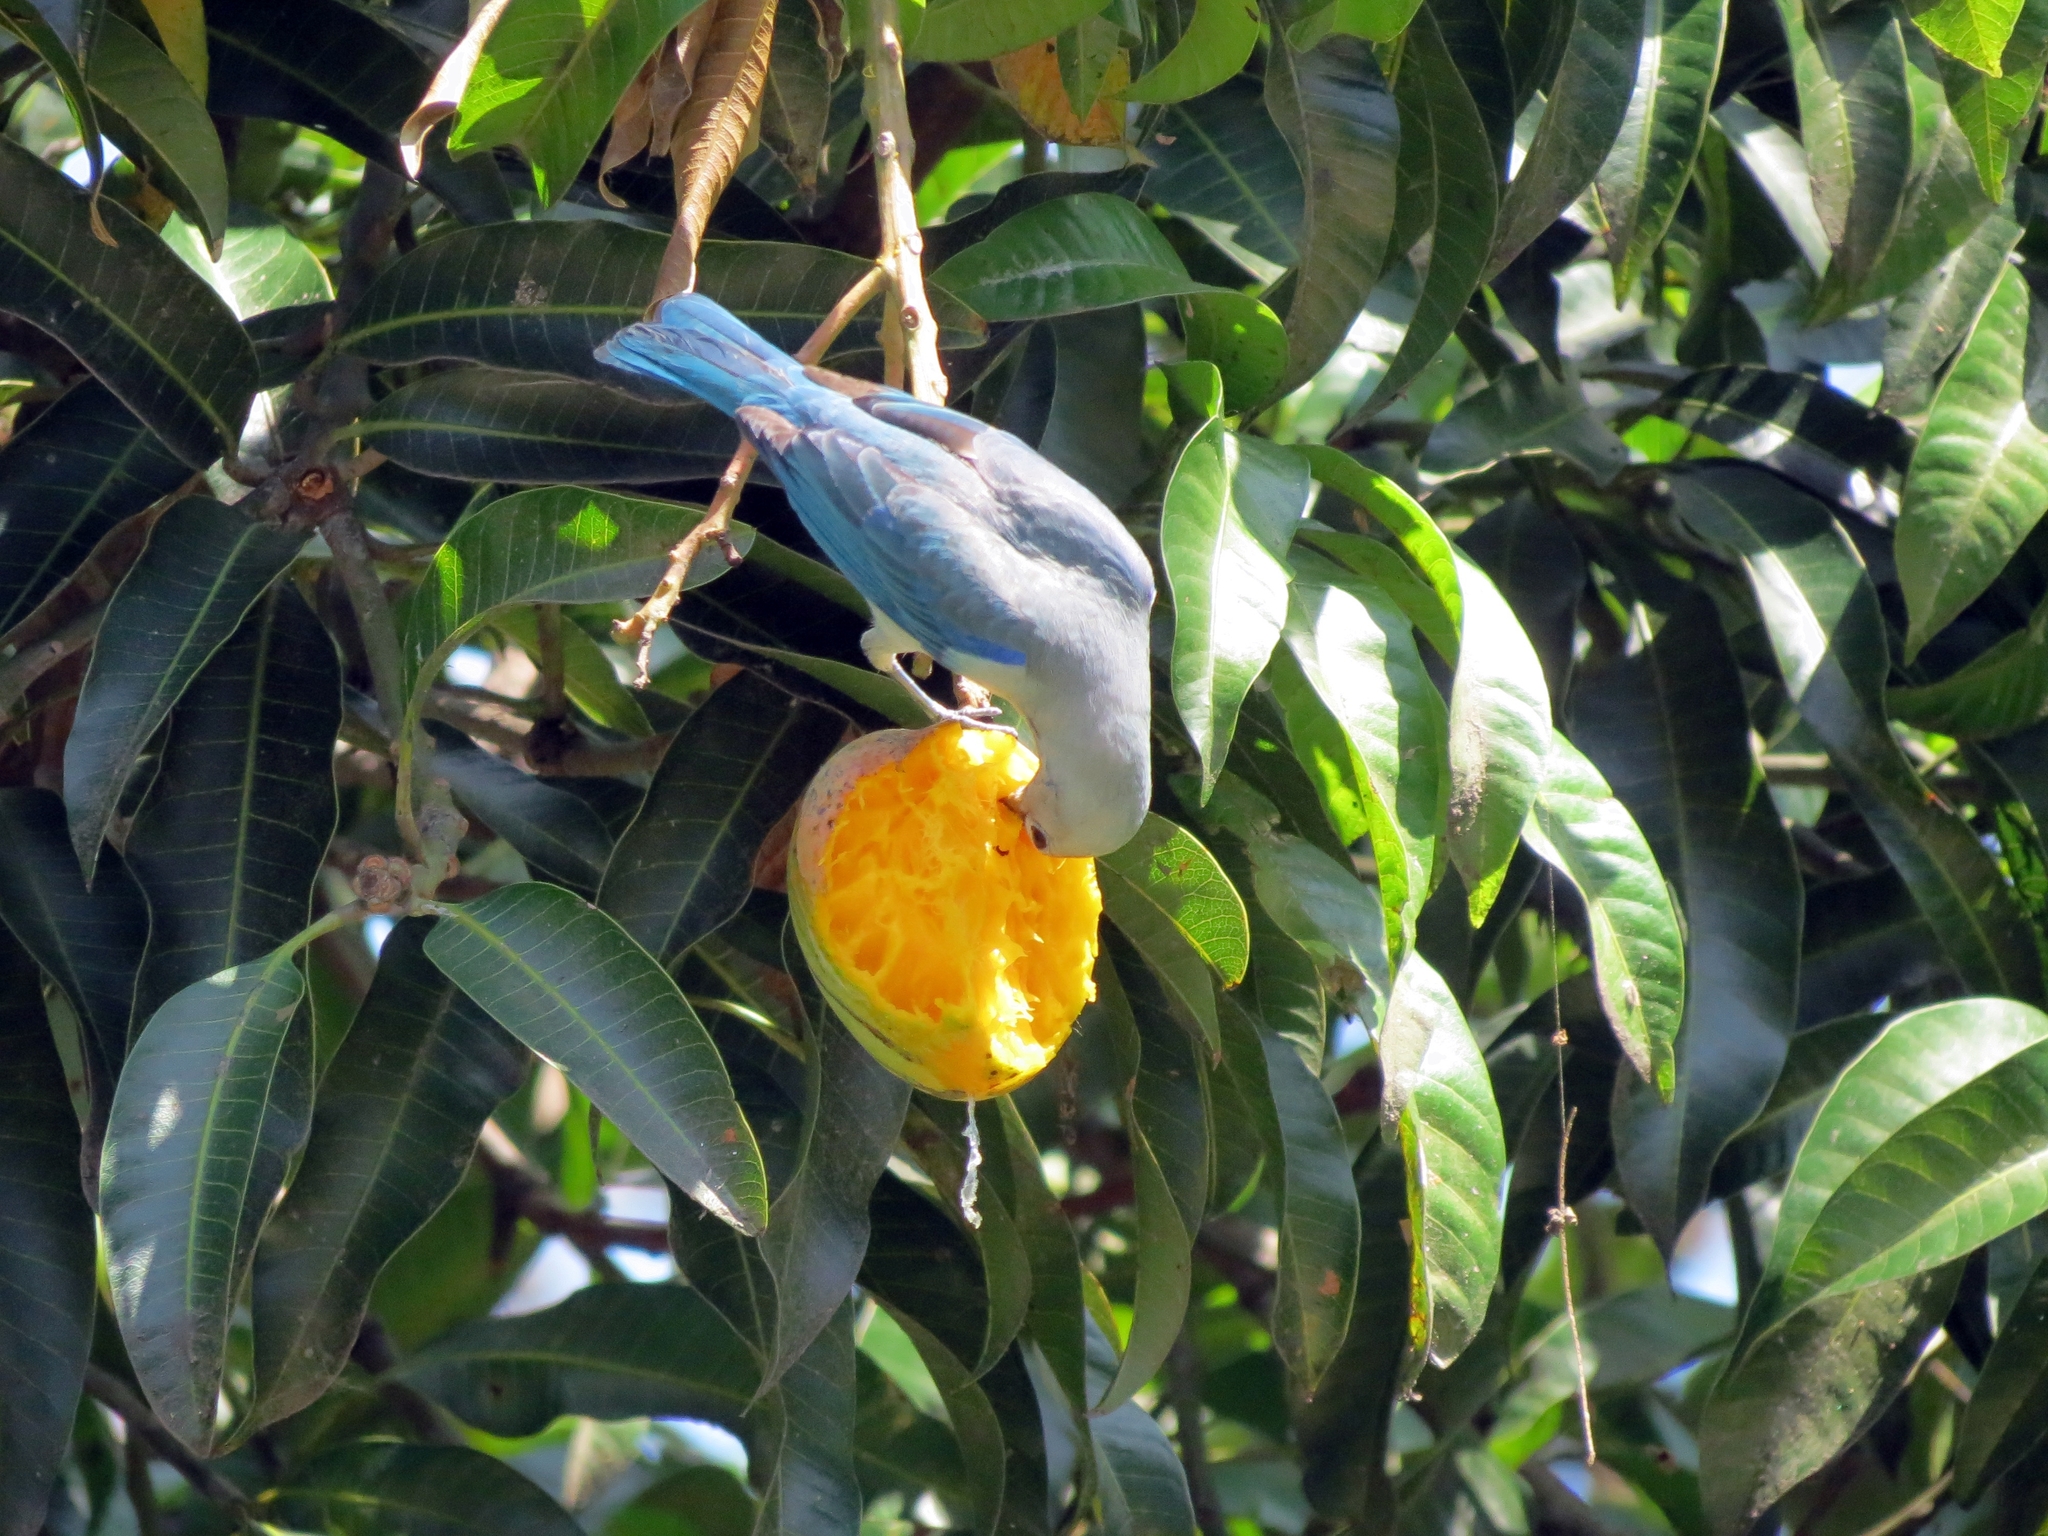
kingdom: Animalia
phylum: Chordata
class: Aves
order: Passeriformes
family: Thraupidae
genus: Thraupis
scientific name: Thraupis episcopus
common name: Blue-grey tanager
